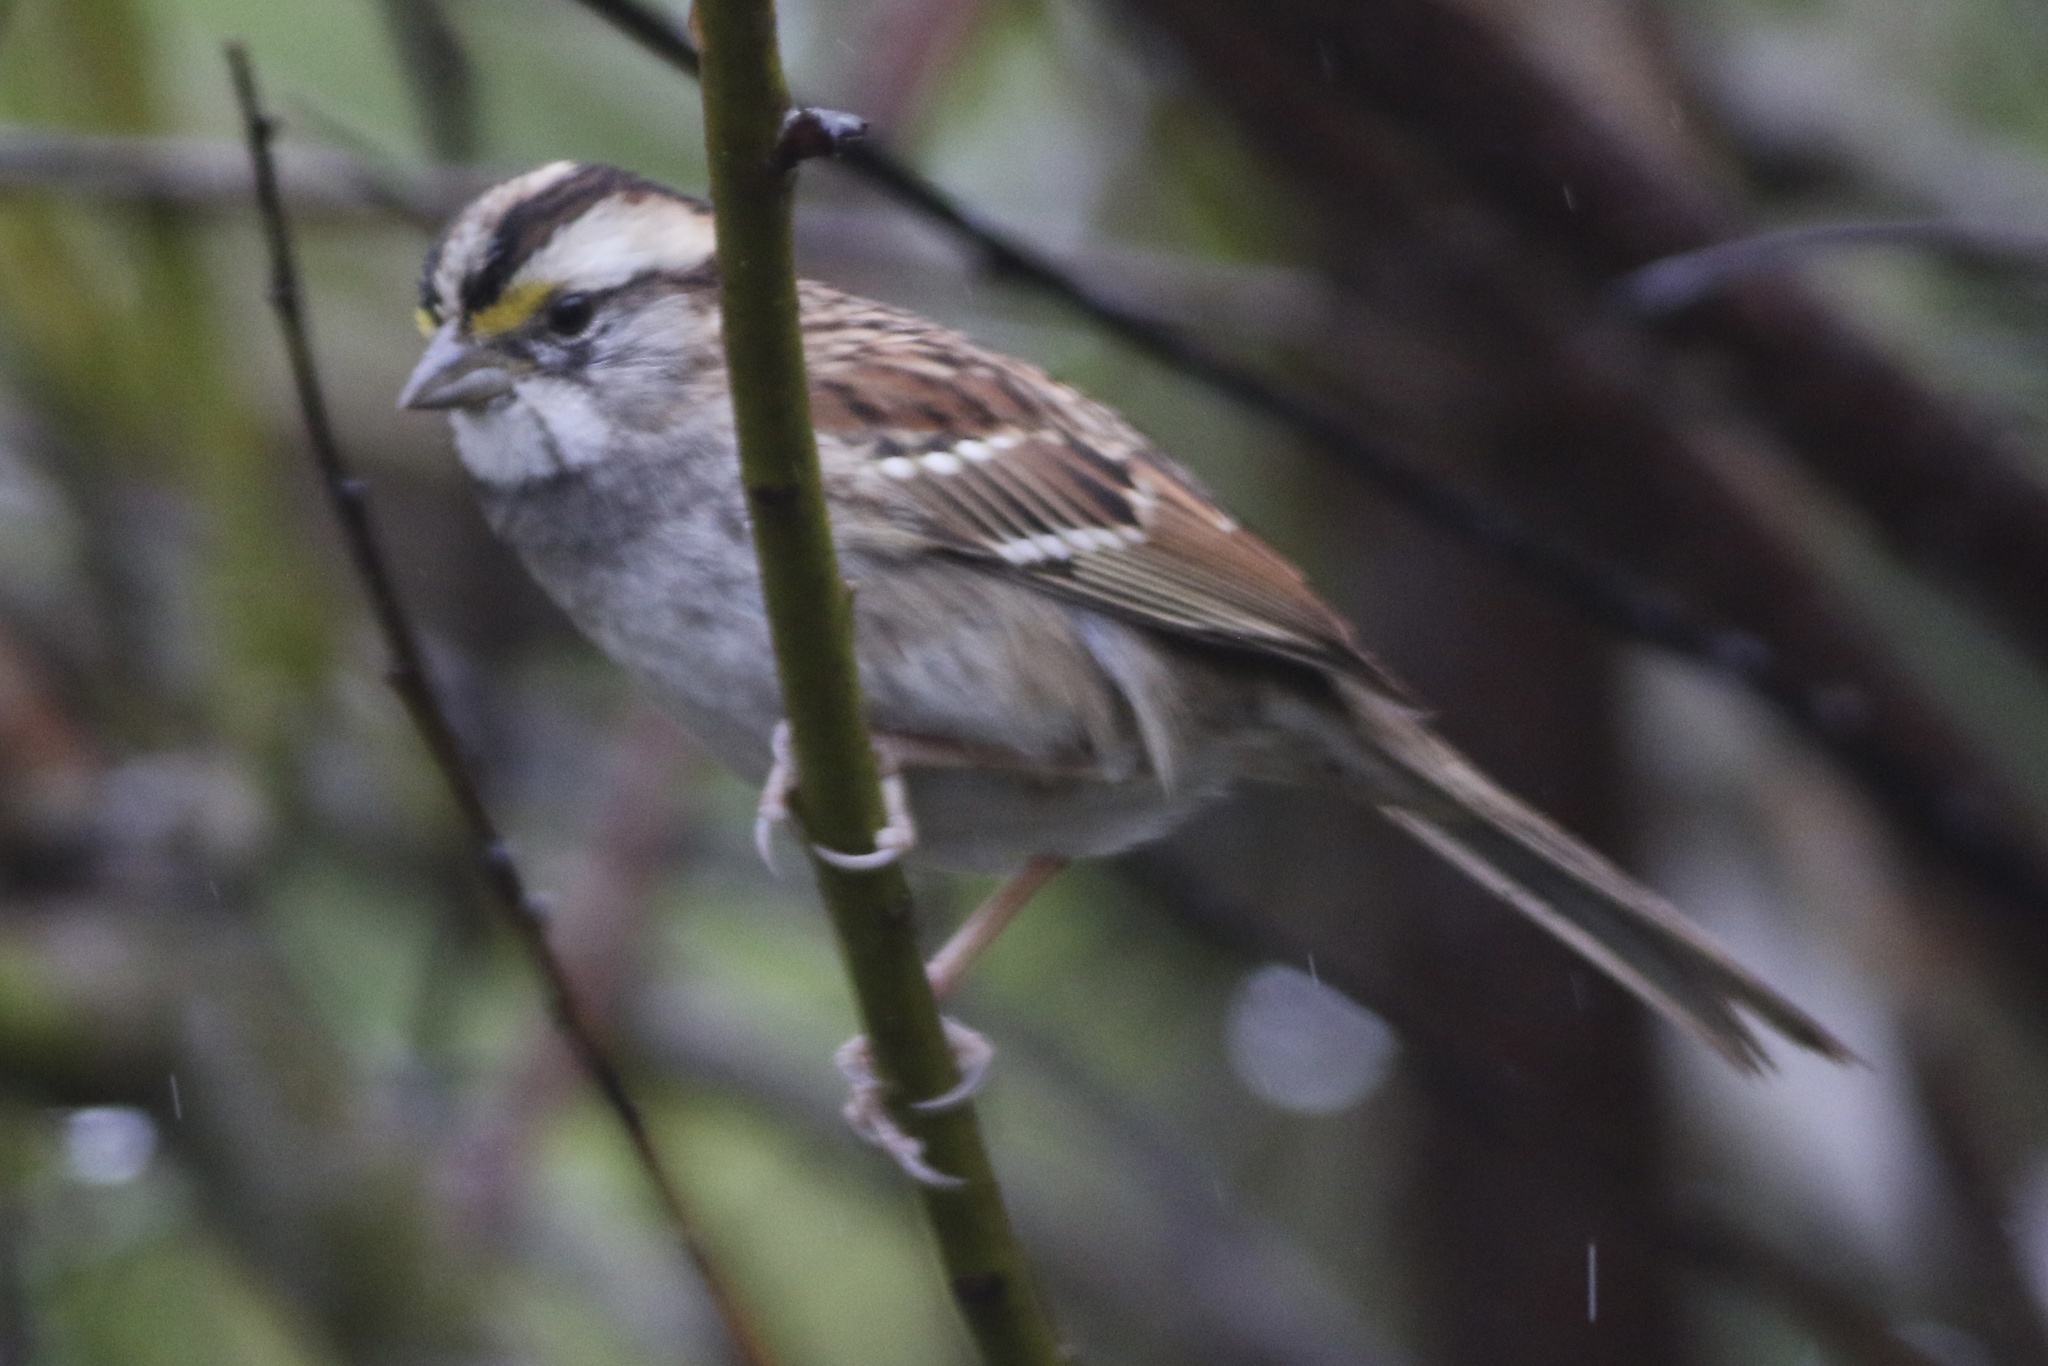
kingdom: Animalia
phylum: Chordata
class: Aves
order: Passeriformes
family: Passerellidae
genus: Zonotrichia
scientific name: Zonotrichia albicollis
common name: White-throated sparrow
